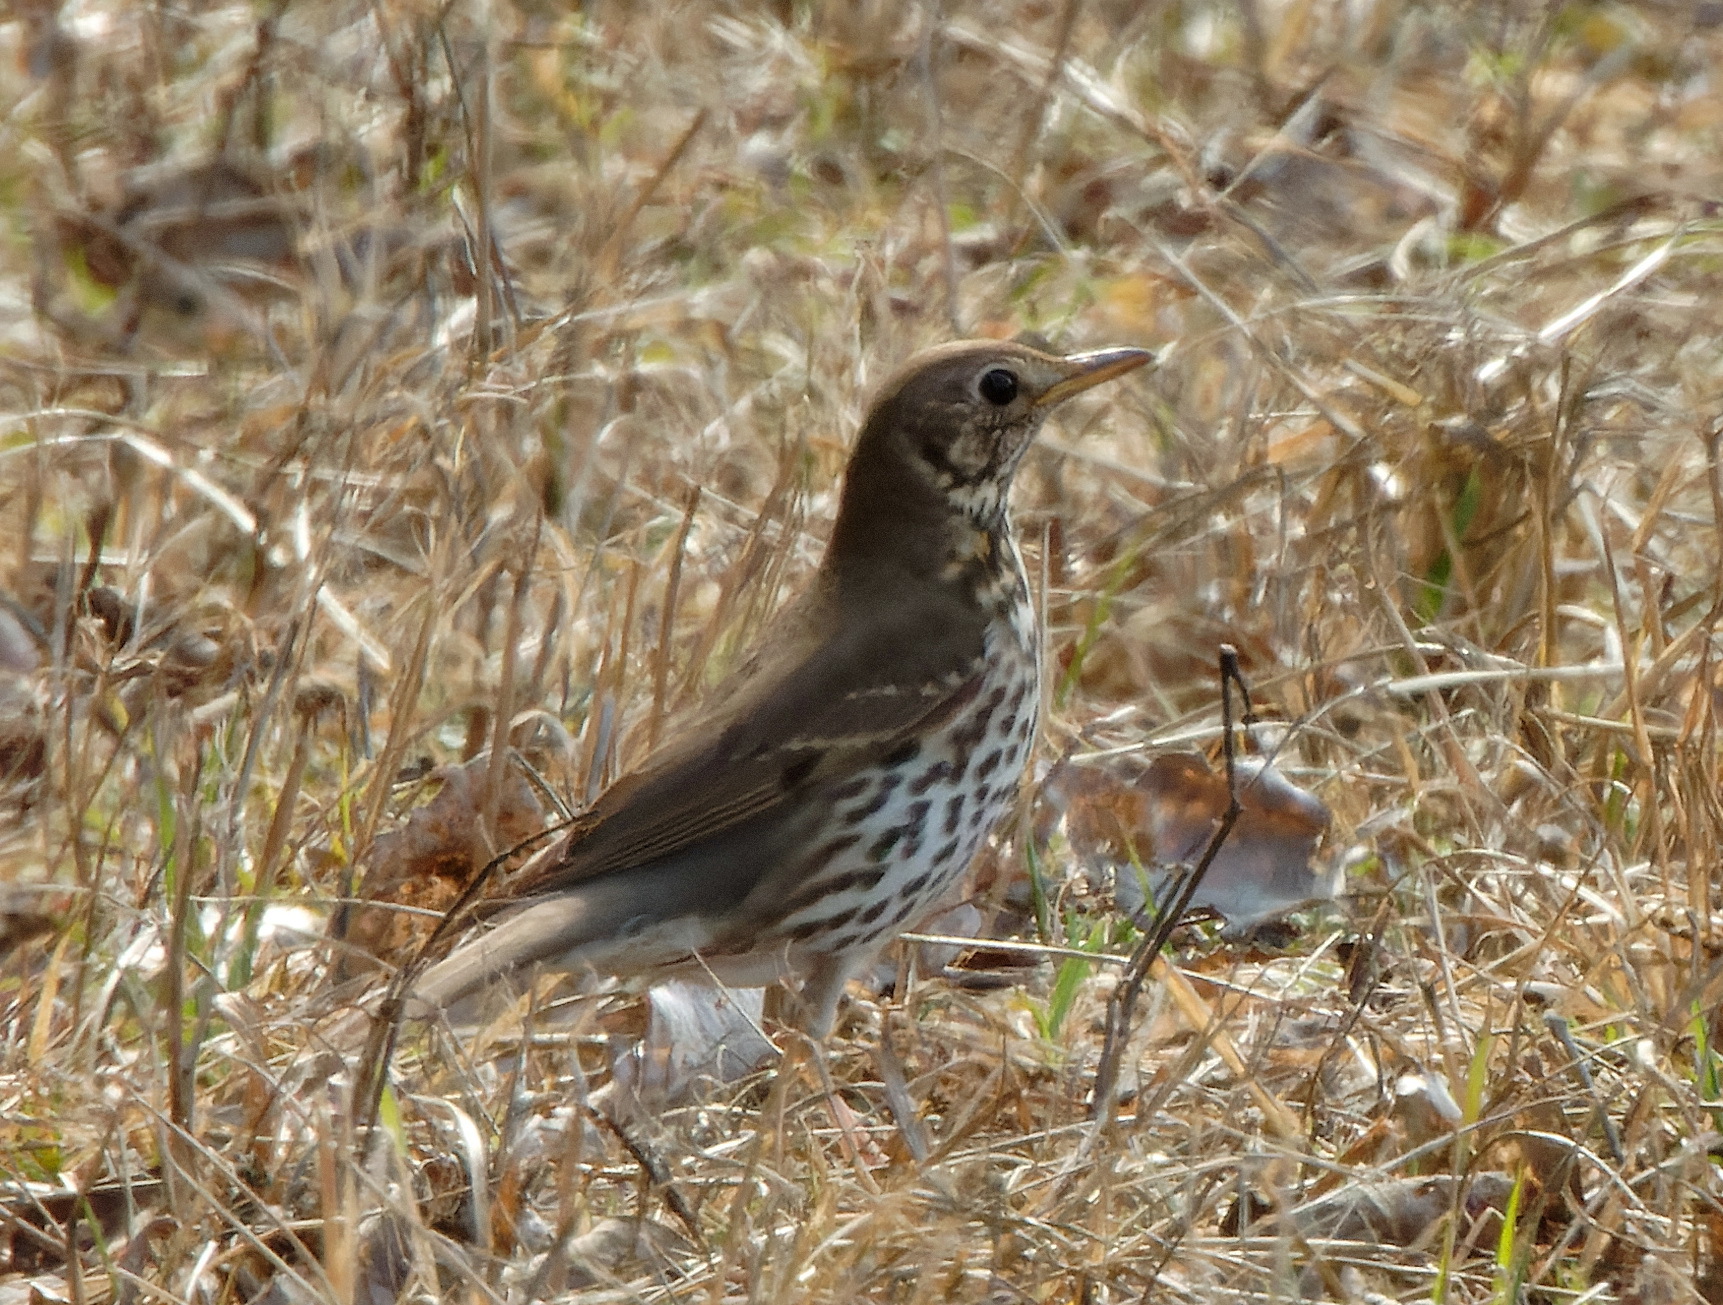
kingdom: Animalia
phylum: Chordata
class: Aves
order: Passeriformes
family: Turdidae
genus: Turdus
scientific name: Turdus philomelos
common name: Song thrush
